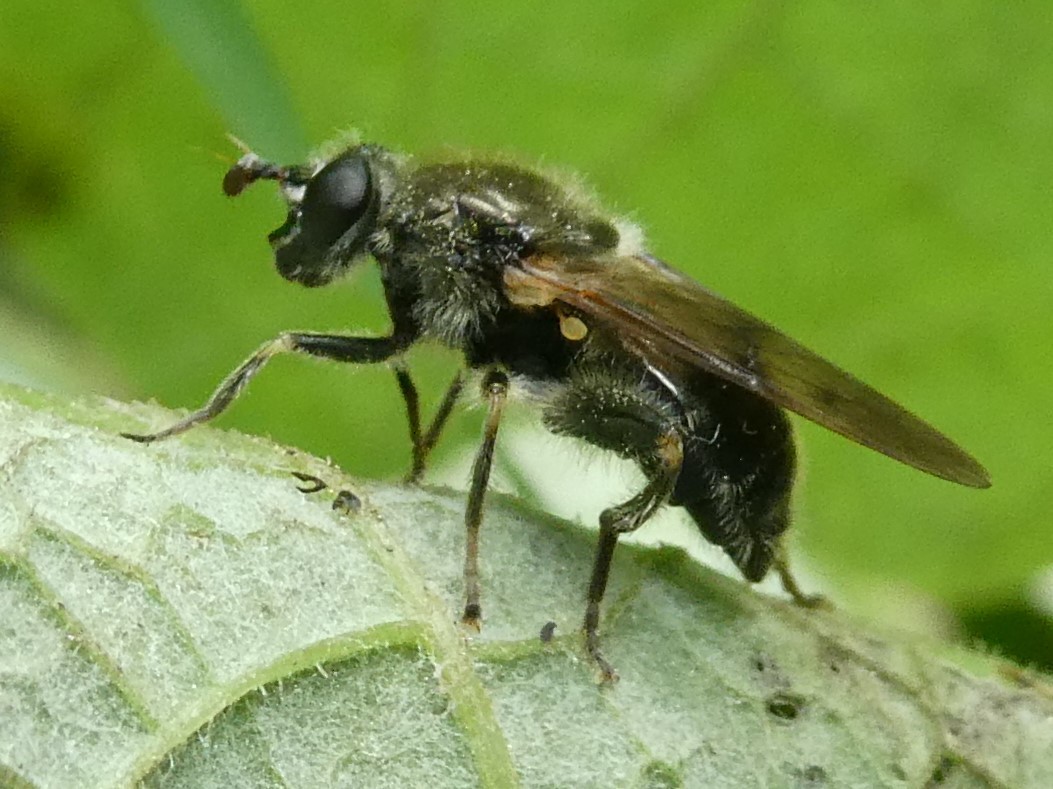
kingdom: Animalia
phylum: Arthropoda
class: Insecta
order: Diptera
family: Syrphidae
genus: Brachypalpus
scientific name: Brachypalpus oarus
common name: Eastern catkin fly
